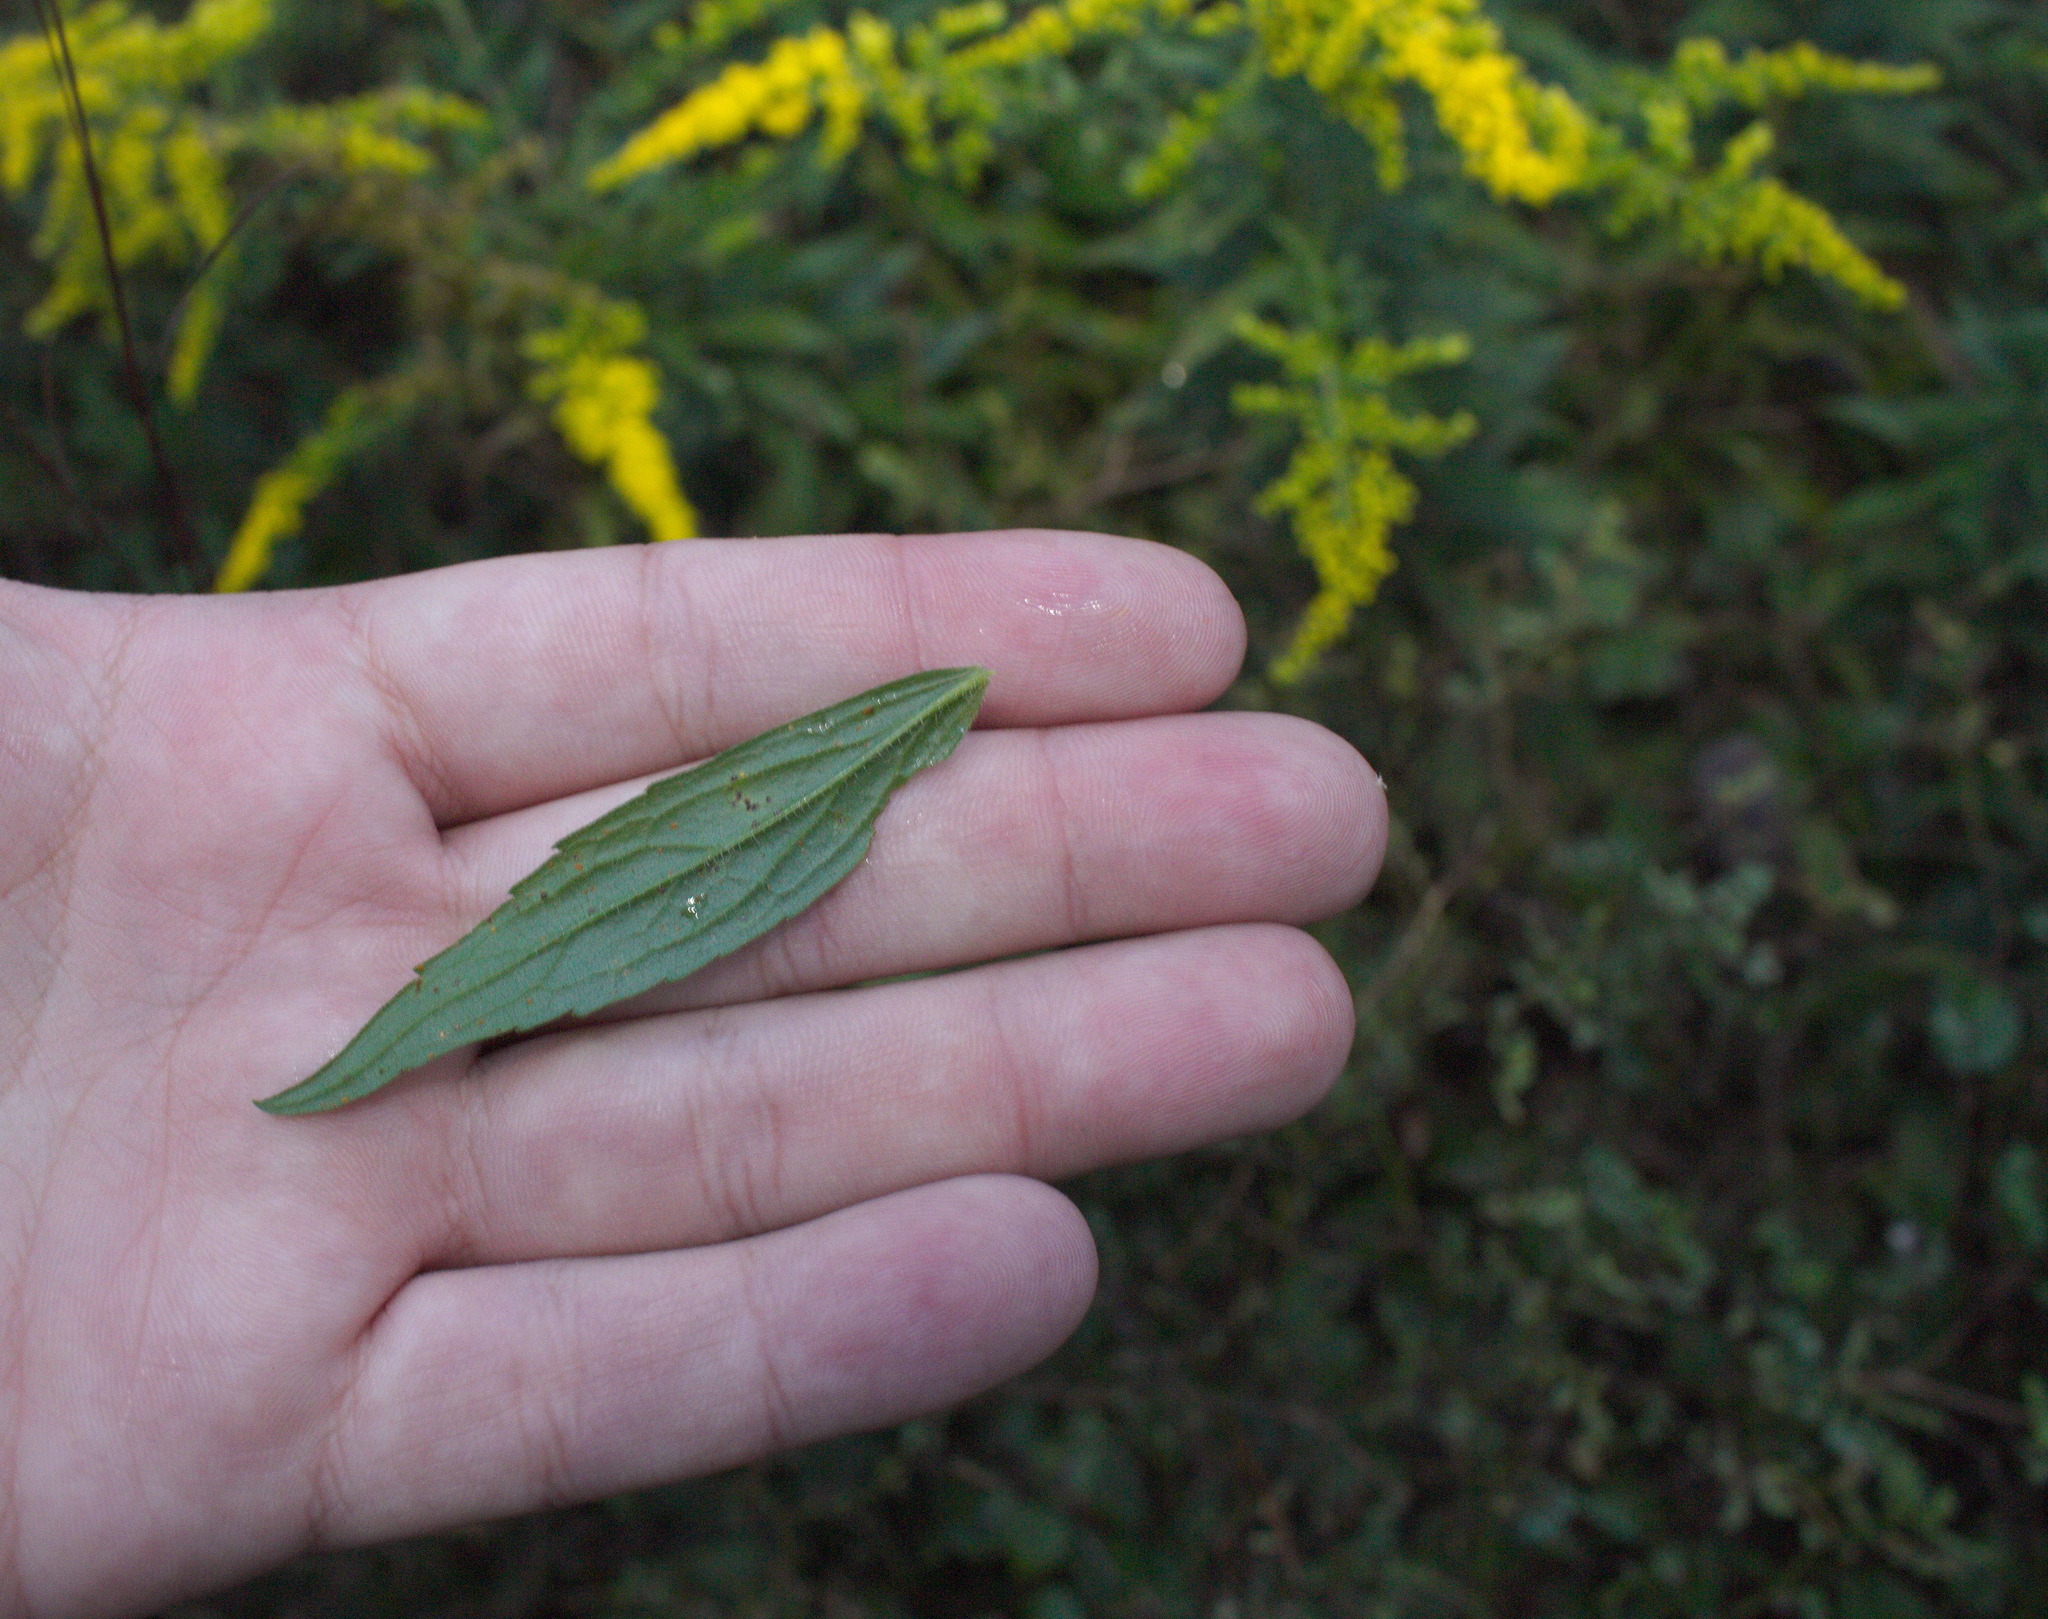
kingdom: Plantae
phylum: Tracheophyta
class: Magnoliopsida
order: Asterales
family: Asteraceae
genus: Solidago
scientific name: Solidago rugosa
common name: Rough-stemmed goldenrod
